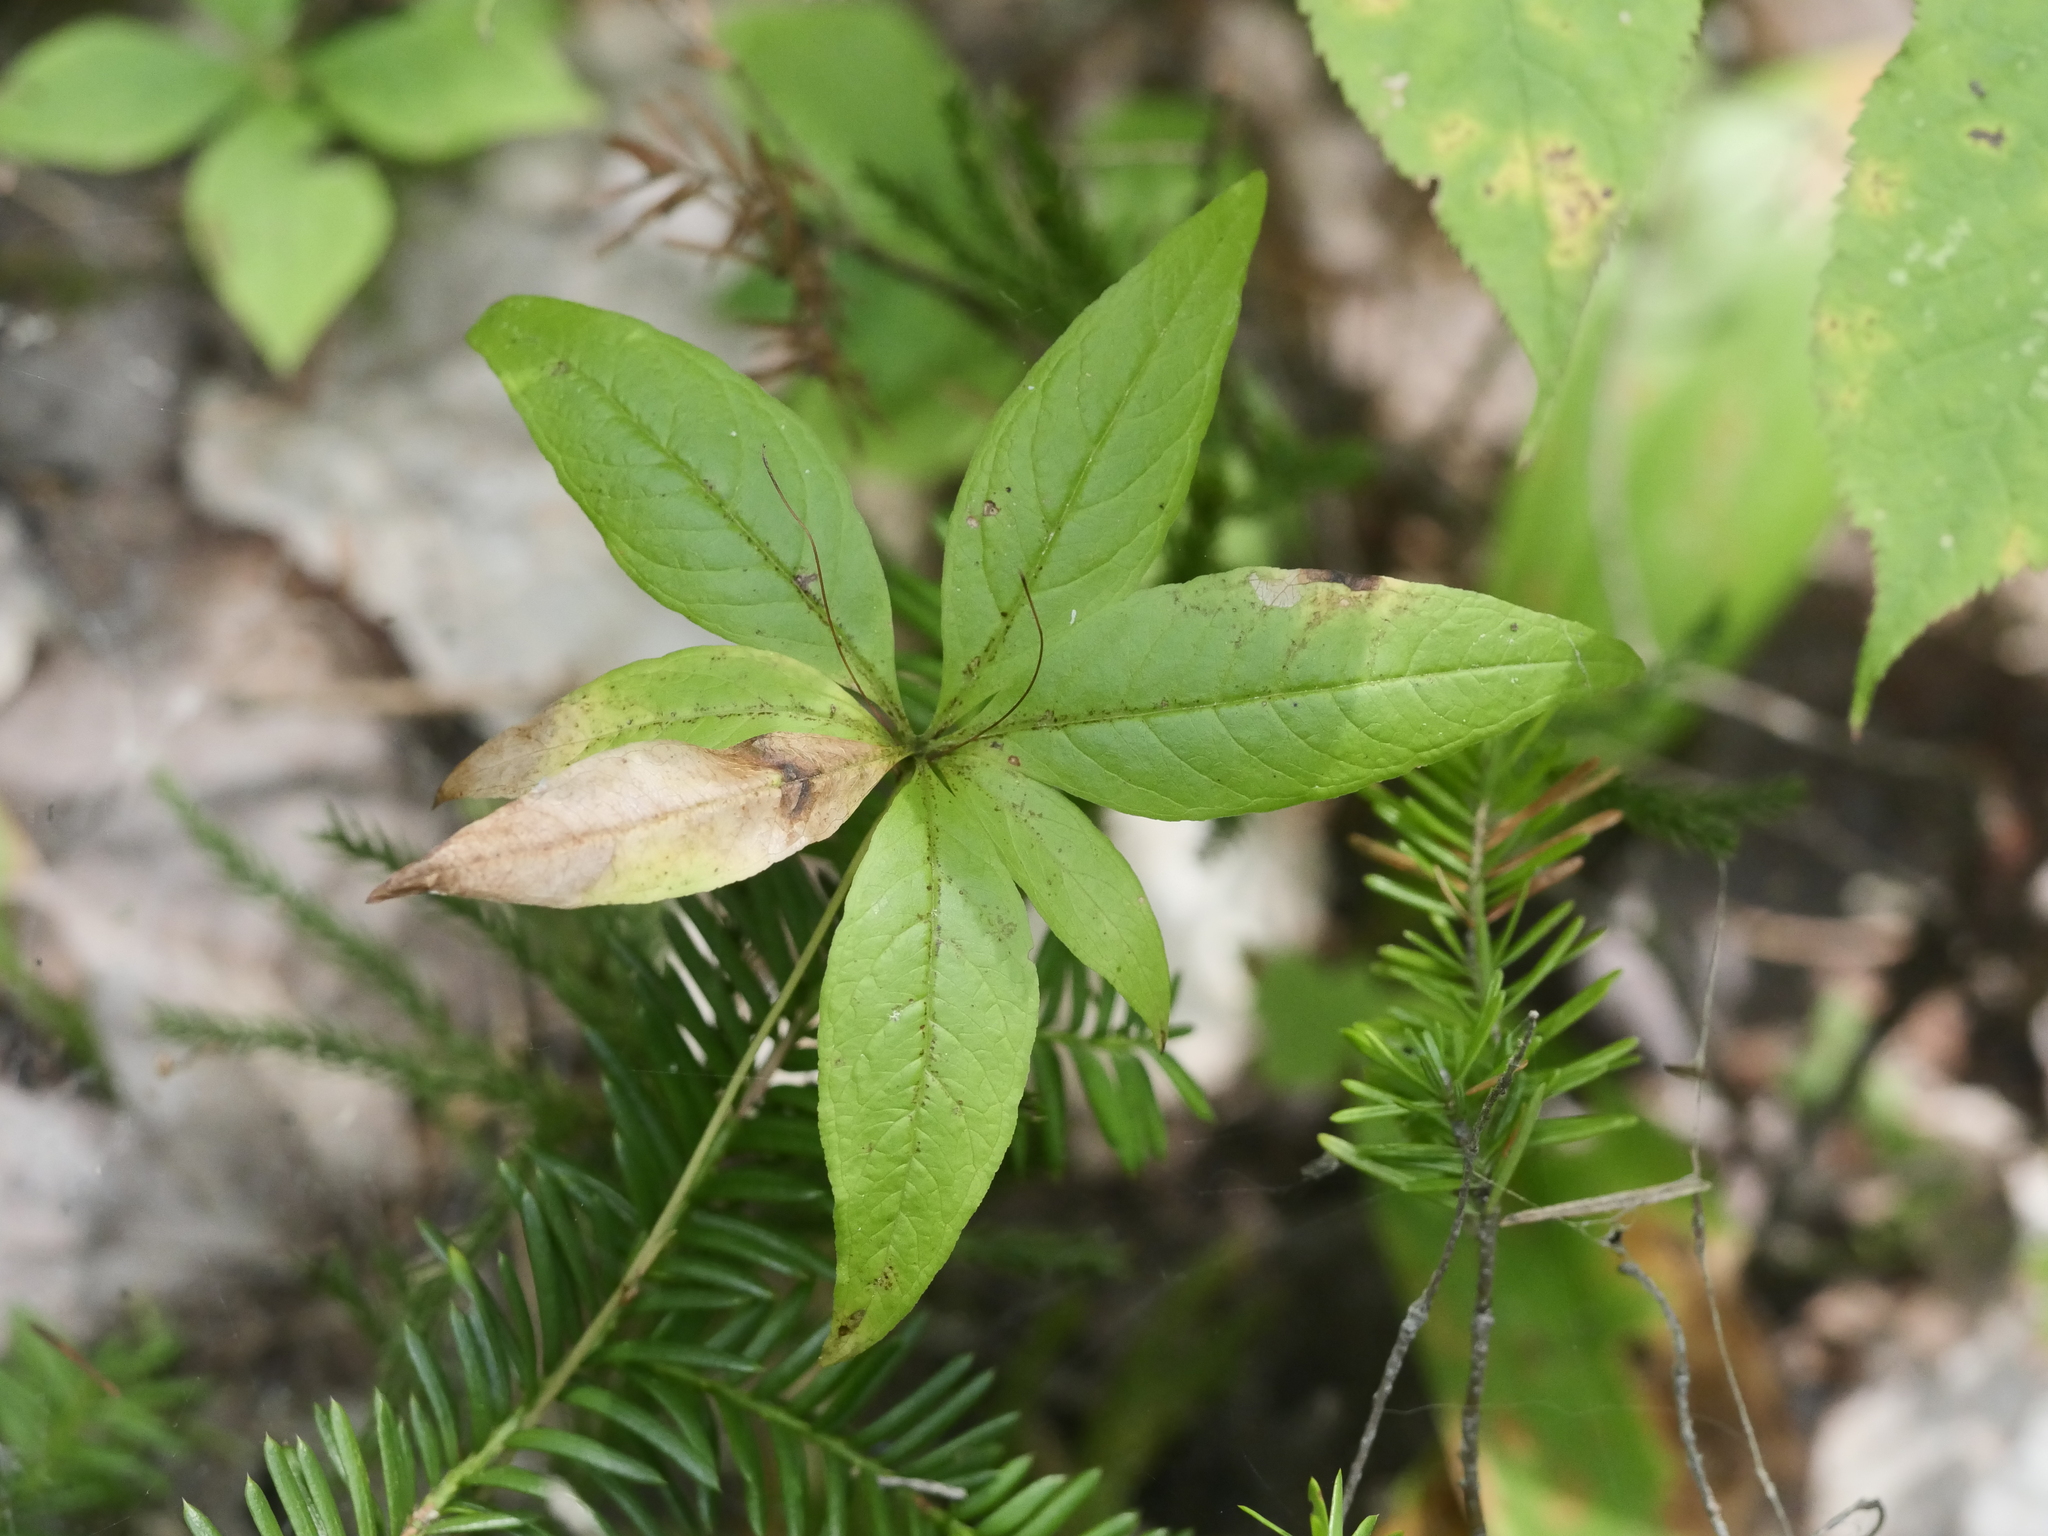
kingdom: Plantae
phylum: Tracheophyta
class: Magnoliopsida
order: Ericales
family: Primulaceae
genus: Lysimachia
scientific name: Lysimachia borealis
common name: American starflower
